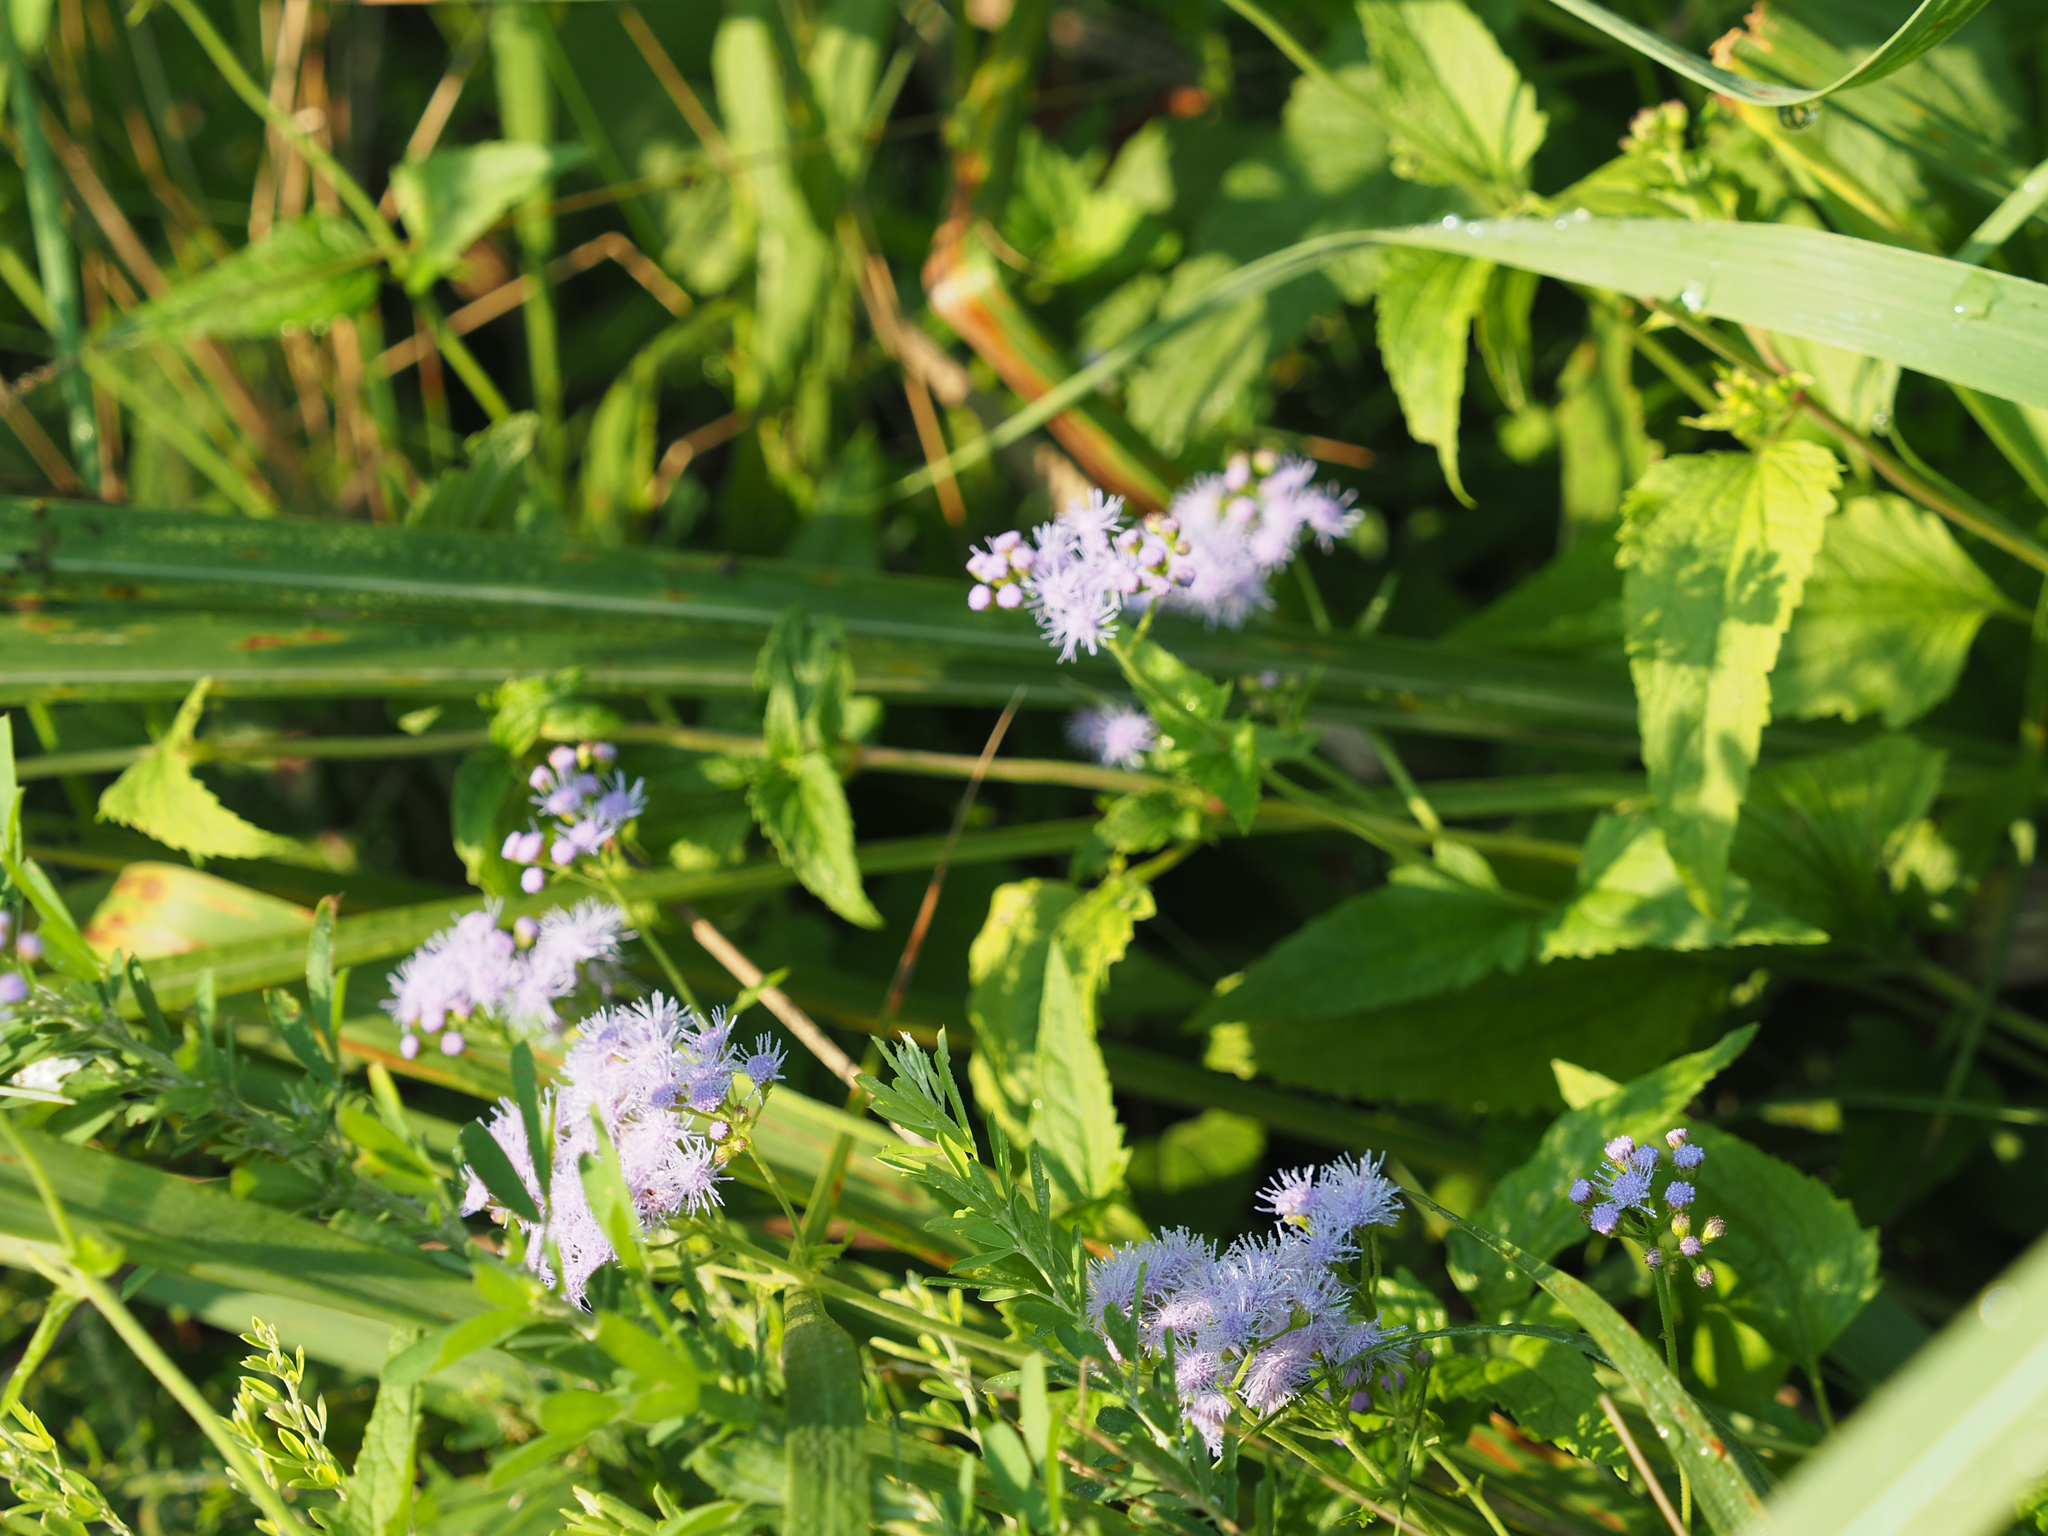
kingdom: Plantae
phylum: Tracheophyta
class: Magnoliopsida
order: Asterales
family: Asteraceae
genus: Conoclinium
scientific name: Conoclinium coelestinum
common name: Blue mistflower
